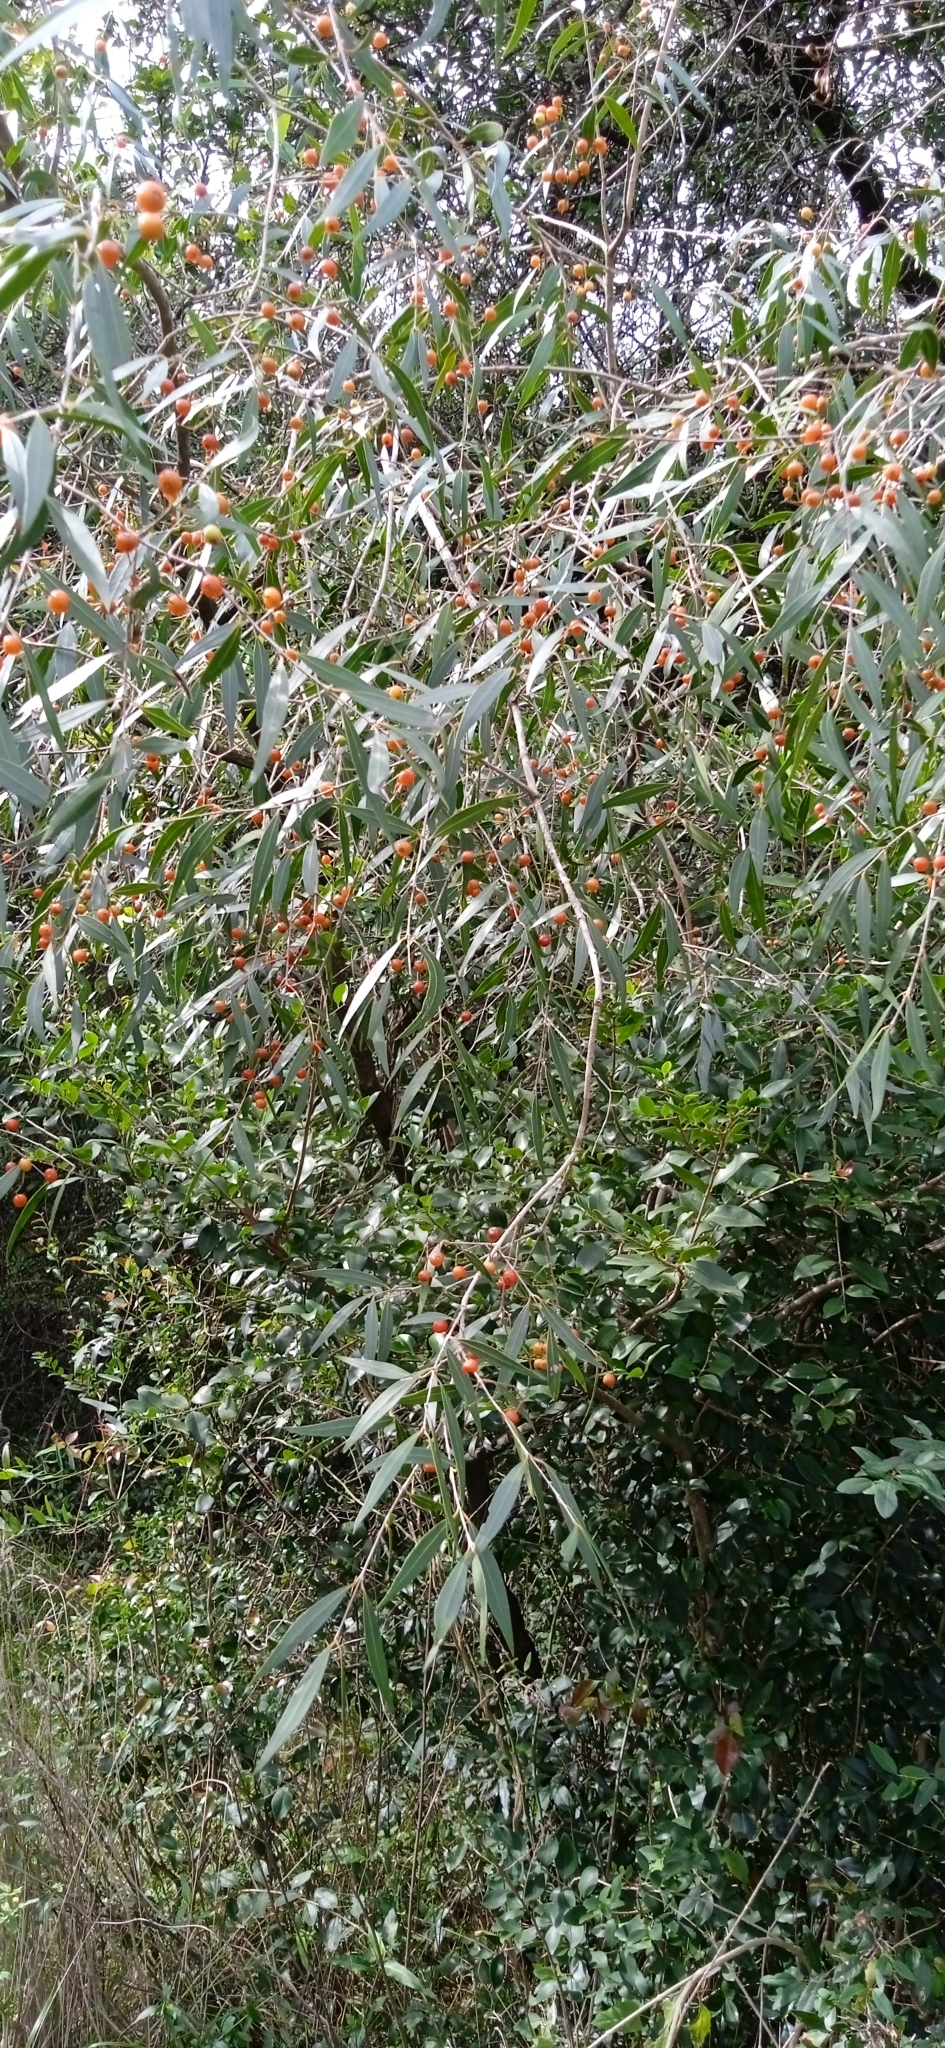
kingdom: Plantae
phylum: Tracheophyta
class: Magnoliopsida
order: Myrtales
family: Myrtaceae
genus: Blepharocalyx
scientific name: Blepharocalyx salicifolius
